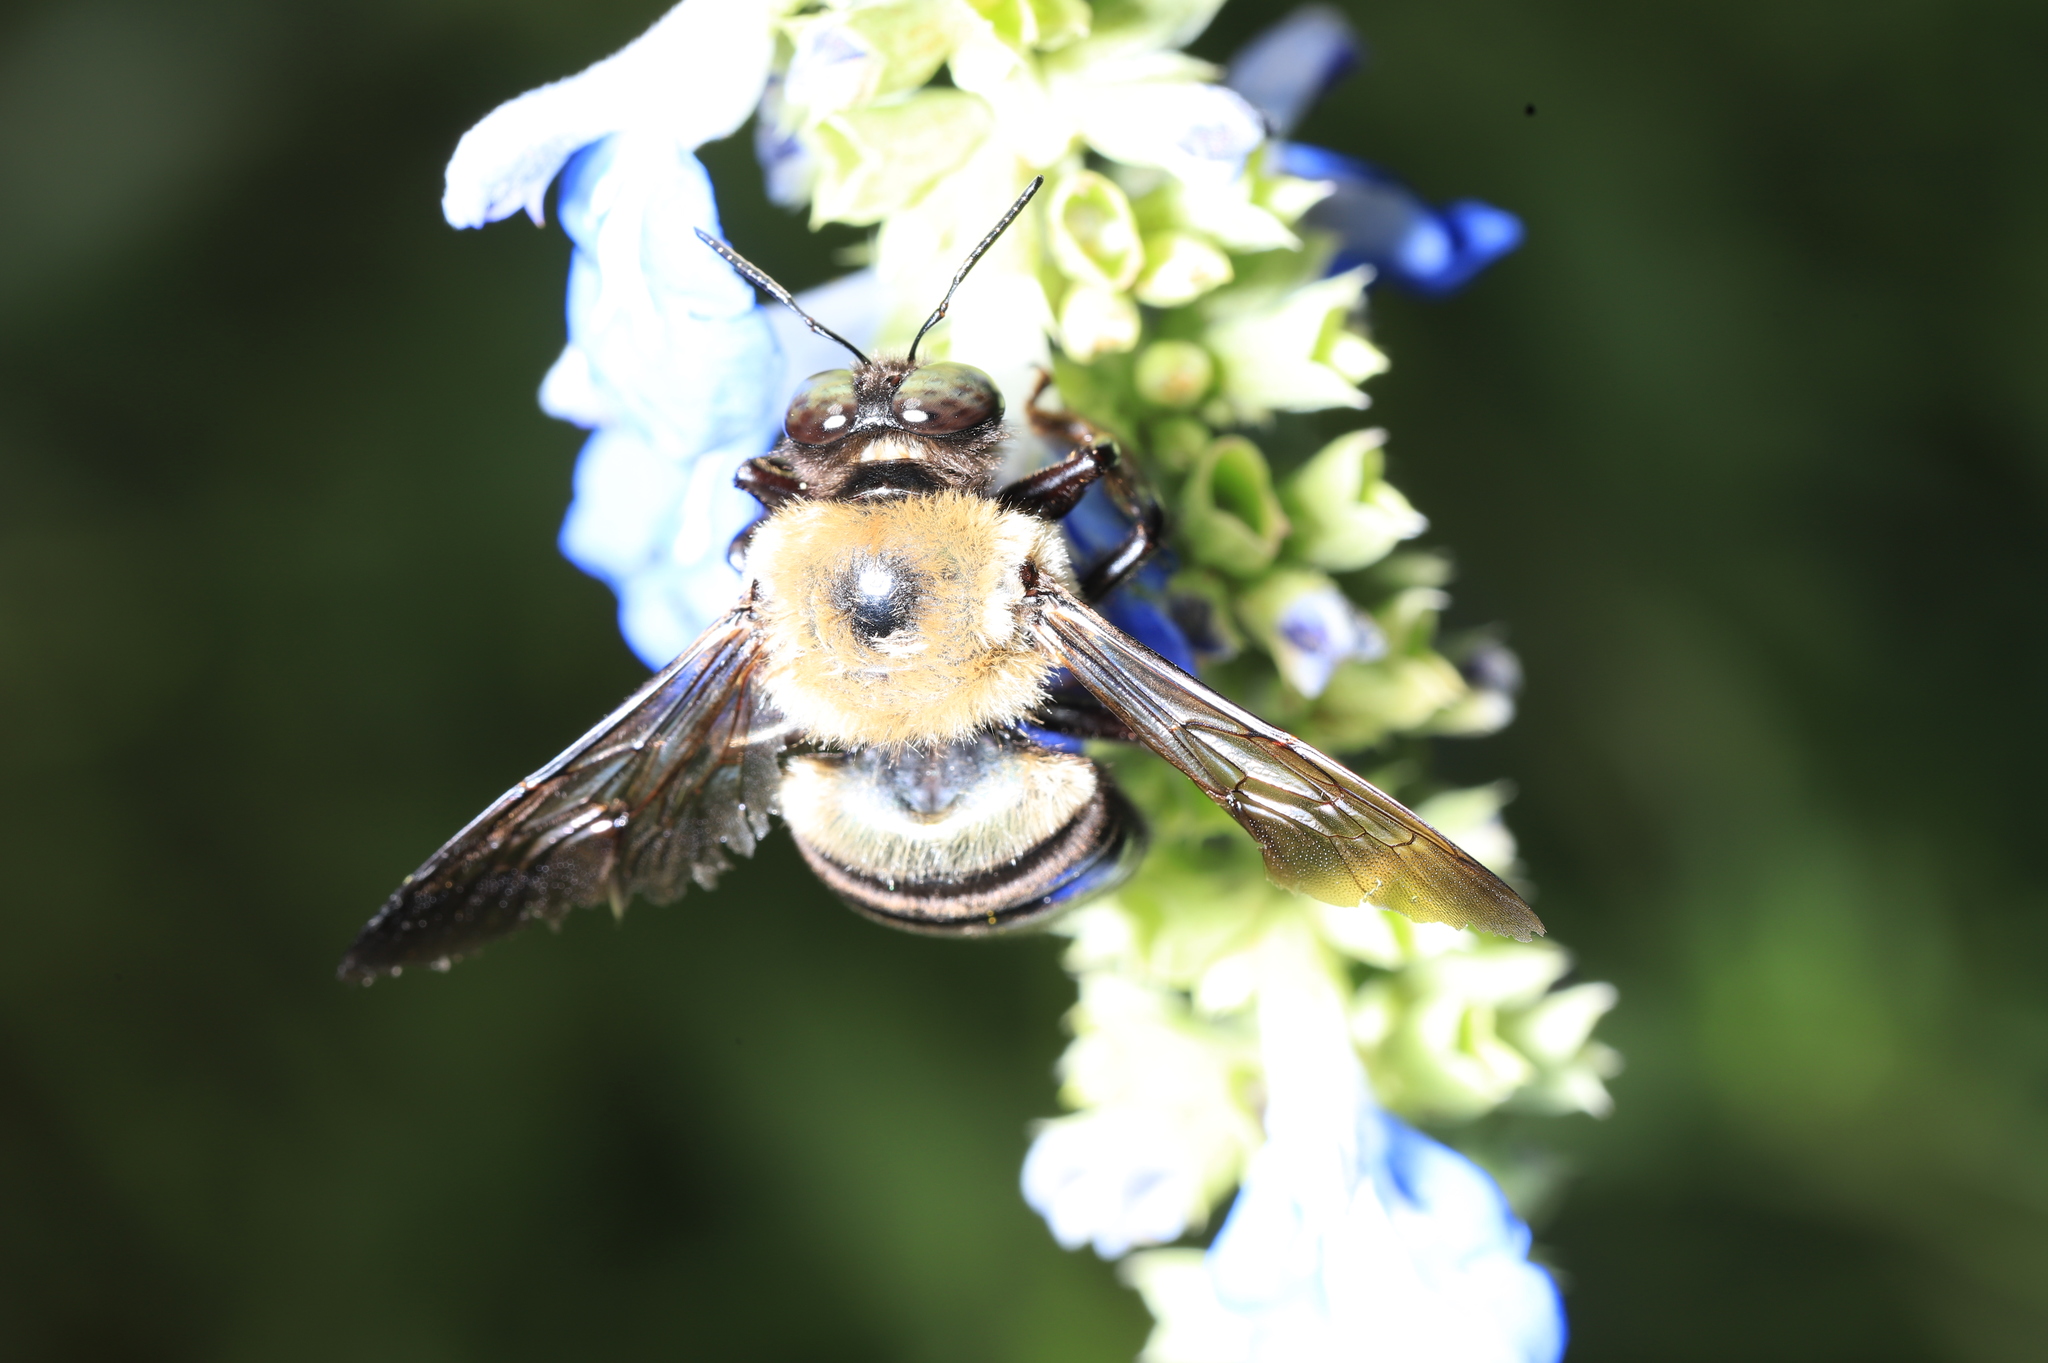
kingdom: Animalia
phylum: Arthropoda
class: Insecta
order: Hymenoptera
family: Apidae
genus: Xylocopa
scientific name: Xylocopa virginica
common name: Carpenter bee
